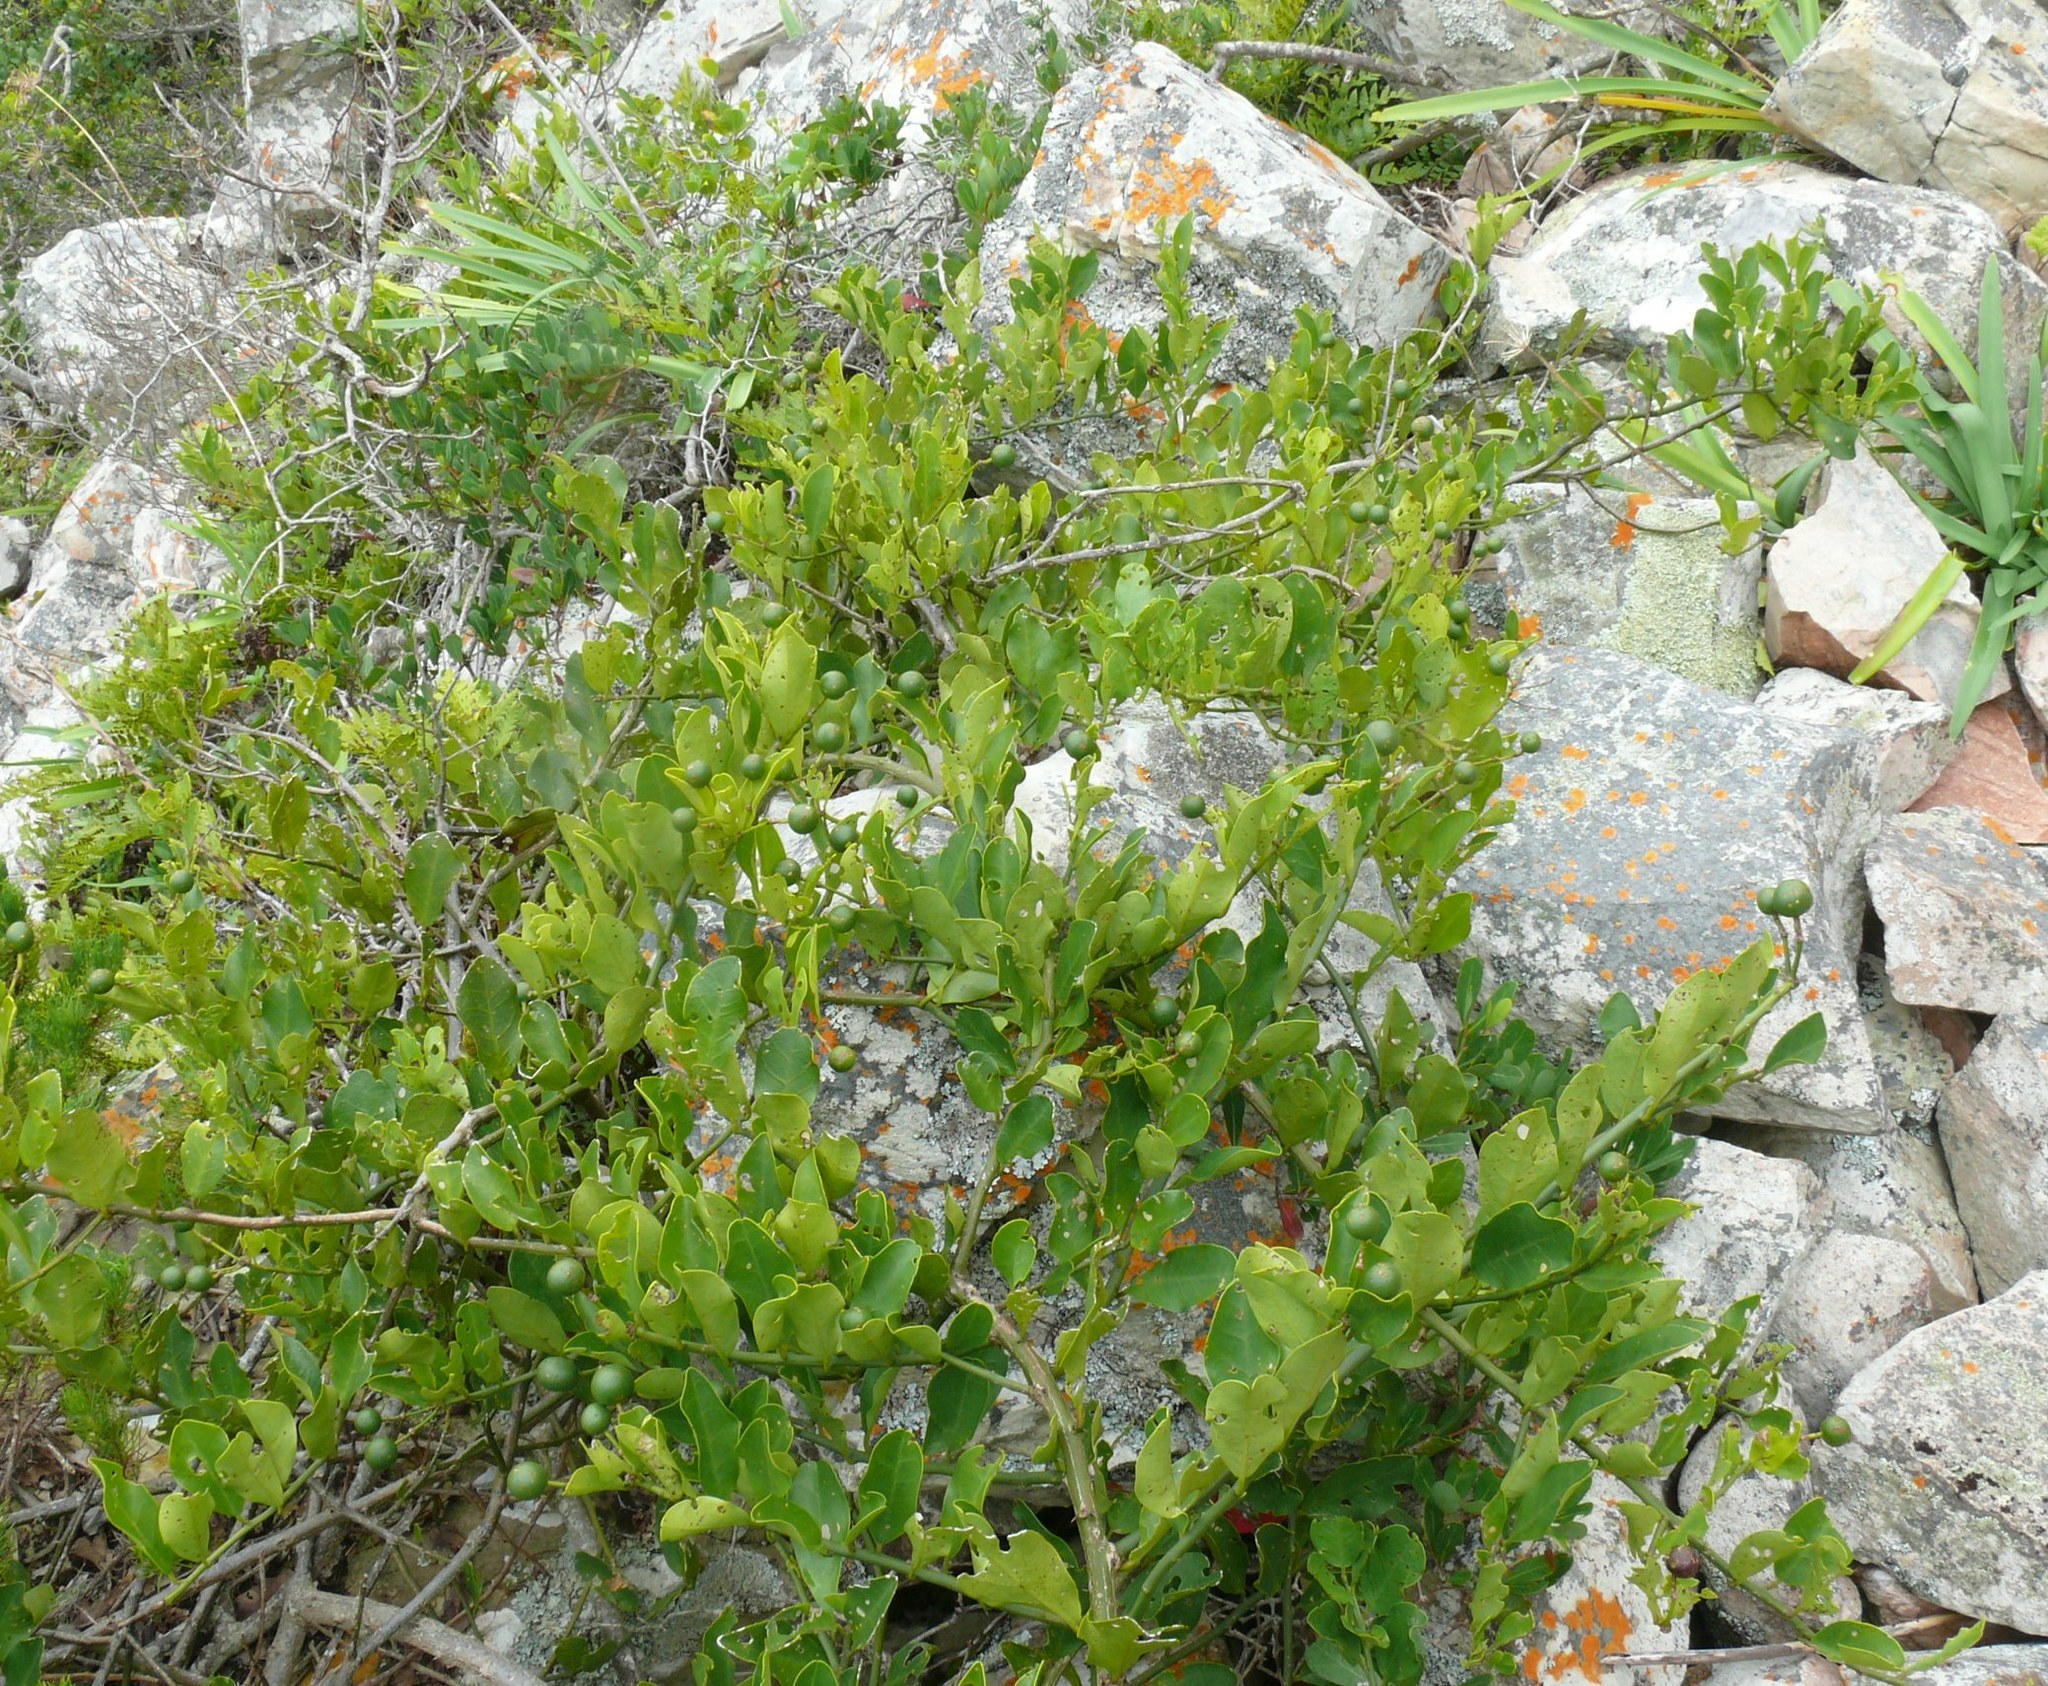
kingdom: Plantae
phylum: Tracheophyta
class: Magnoliopsida
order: Brassicales
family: Capparaceae
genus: Capparis
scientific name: Capparis sepiaria
